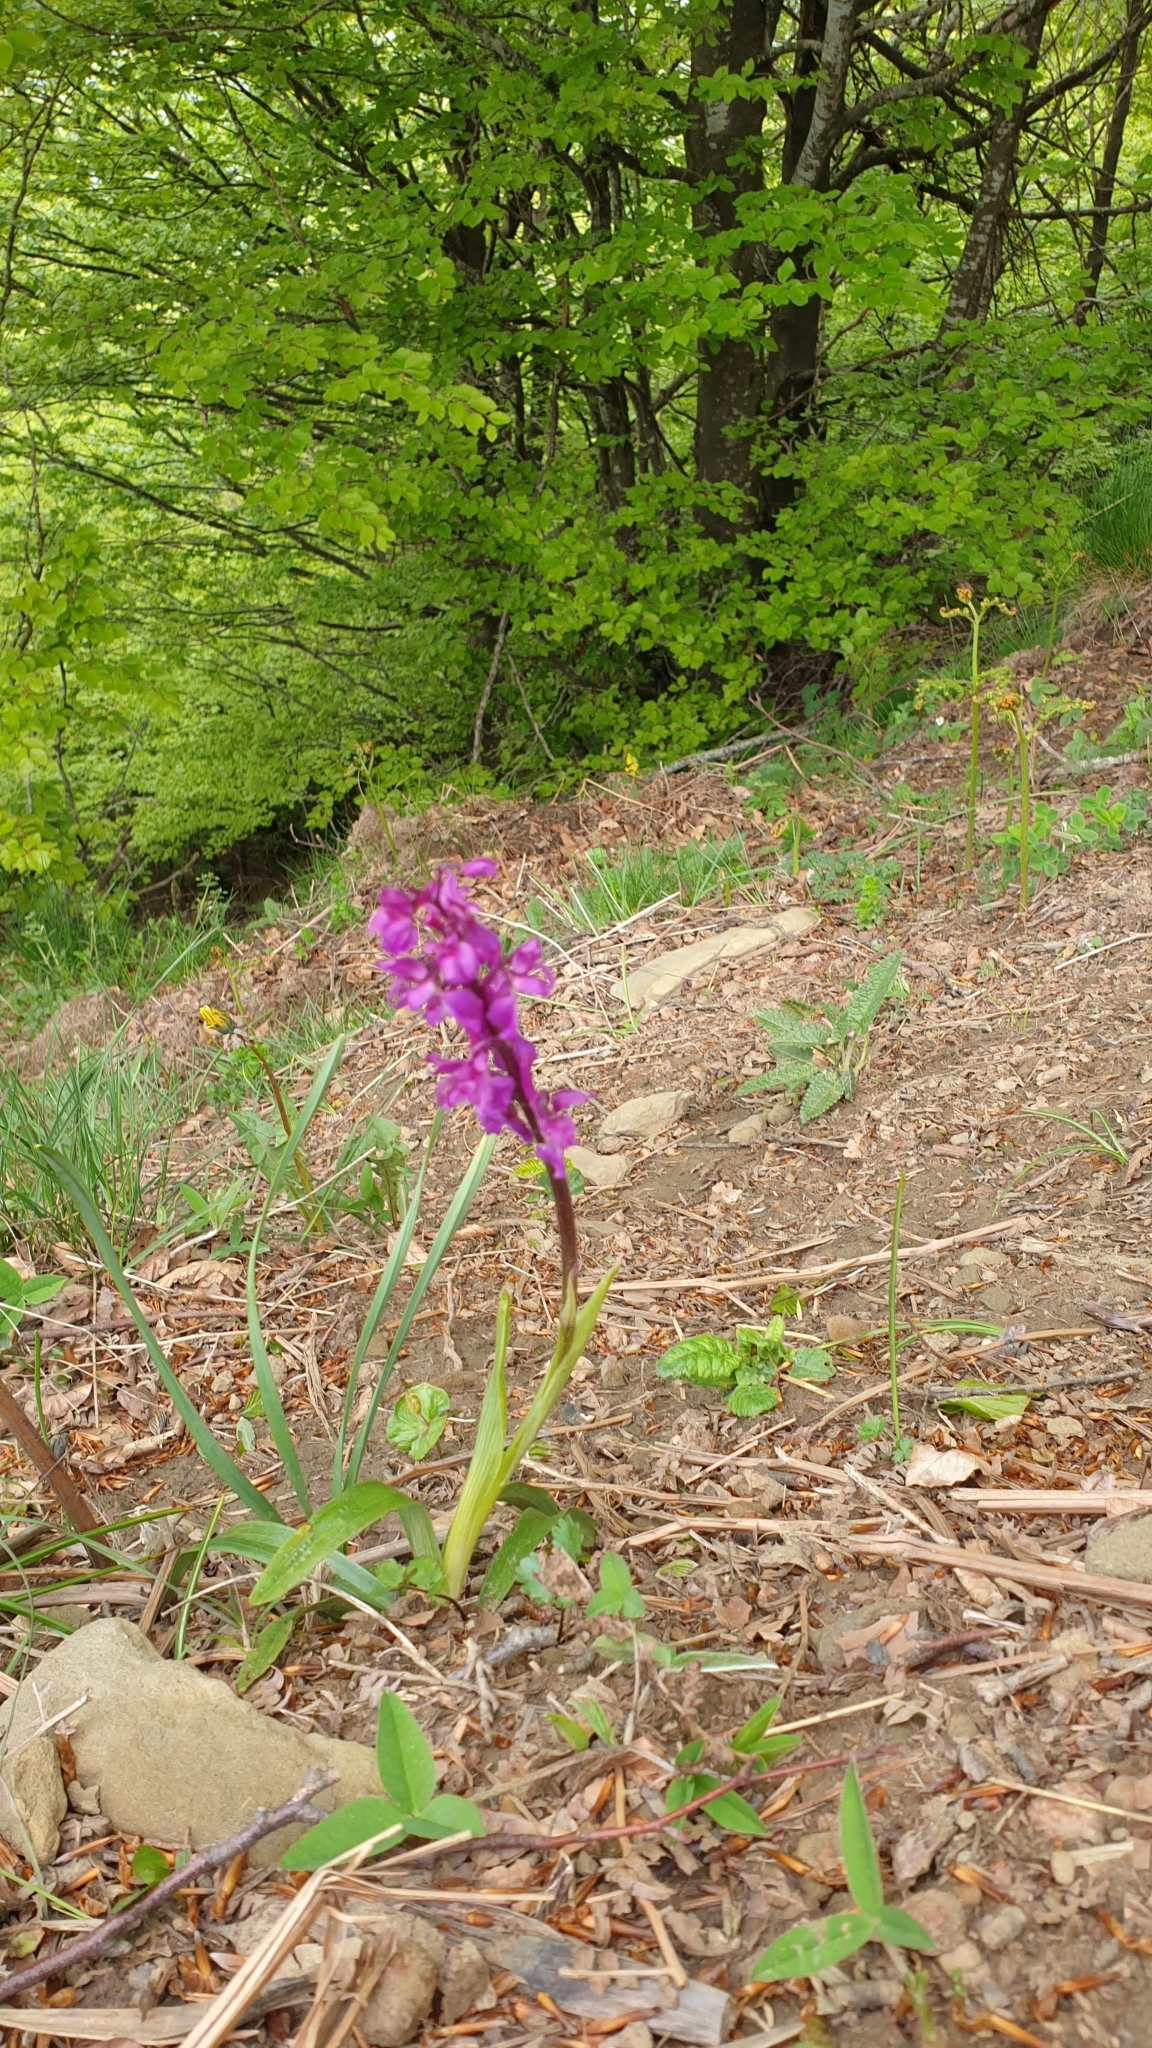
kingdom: Plantae
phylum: Tracheophyta
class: Liliopsida
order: Asparagales
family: Orchidaceae
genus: Orchis
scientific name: Orchis mascula
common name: Early-purple orchid
